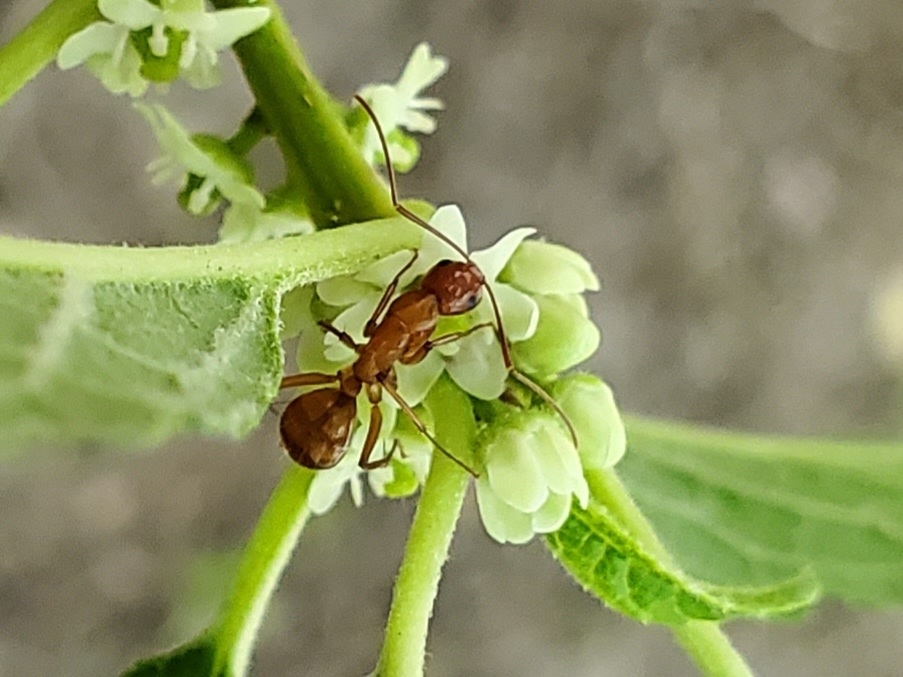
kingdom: Animalia
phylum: Arthropoda
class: Insecta
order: Hymenoptera
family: Formicidae
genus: Camponotus
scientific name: Camponotus castaneus
